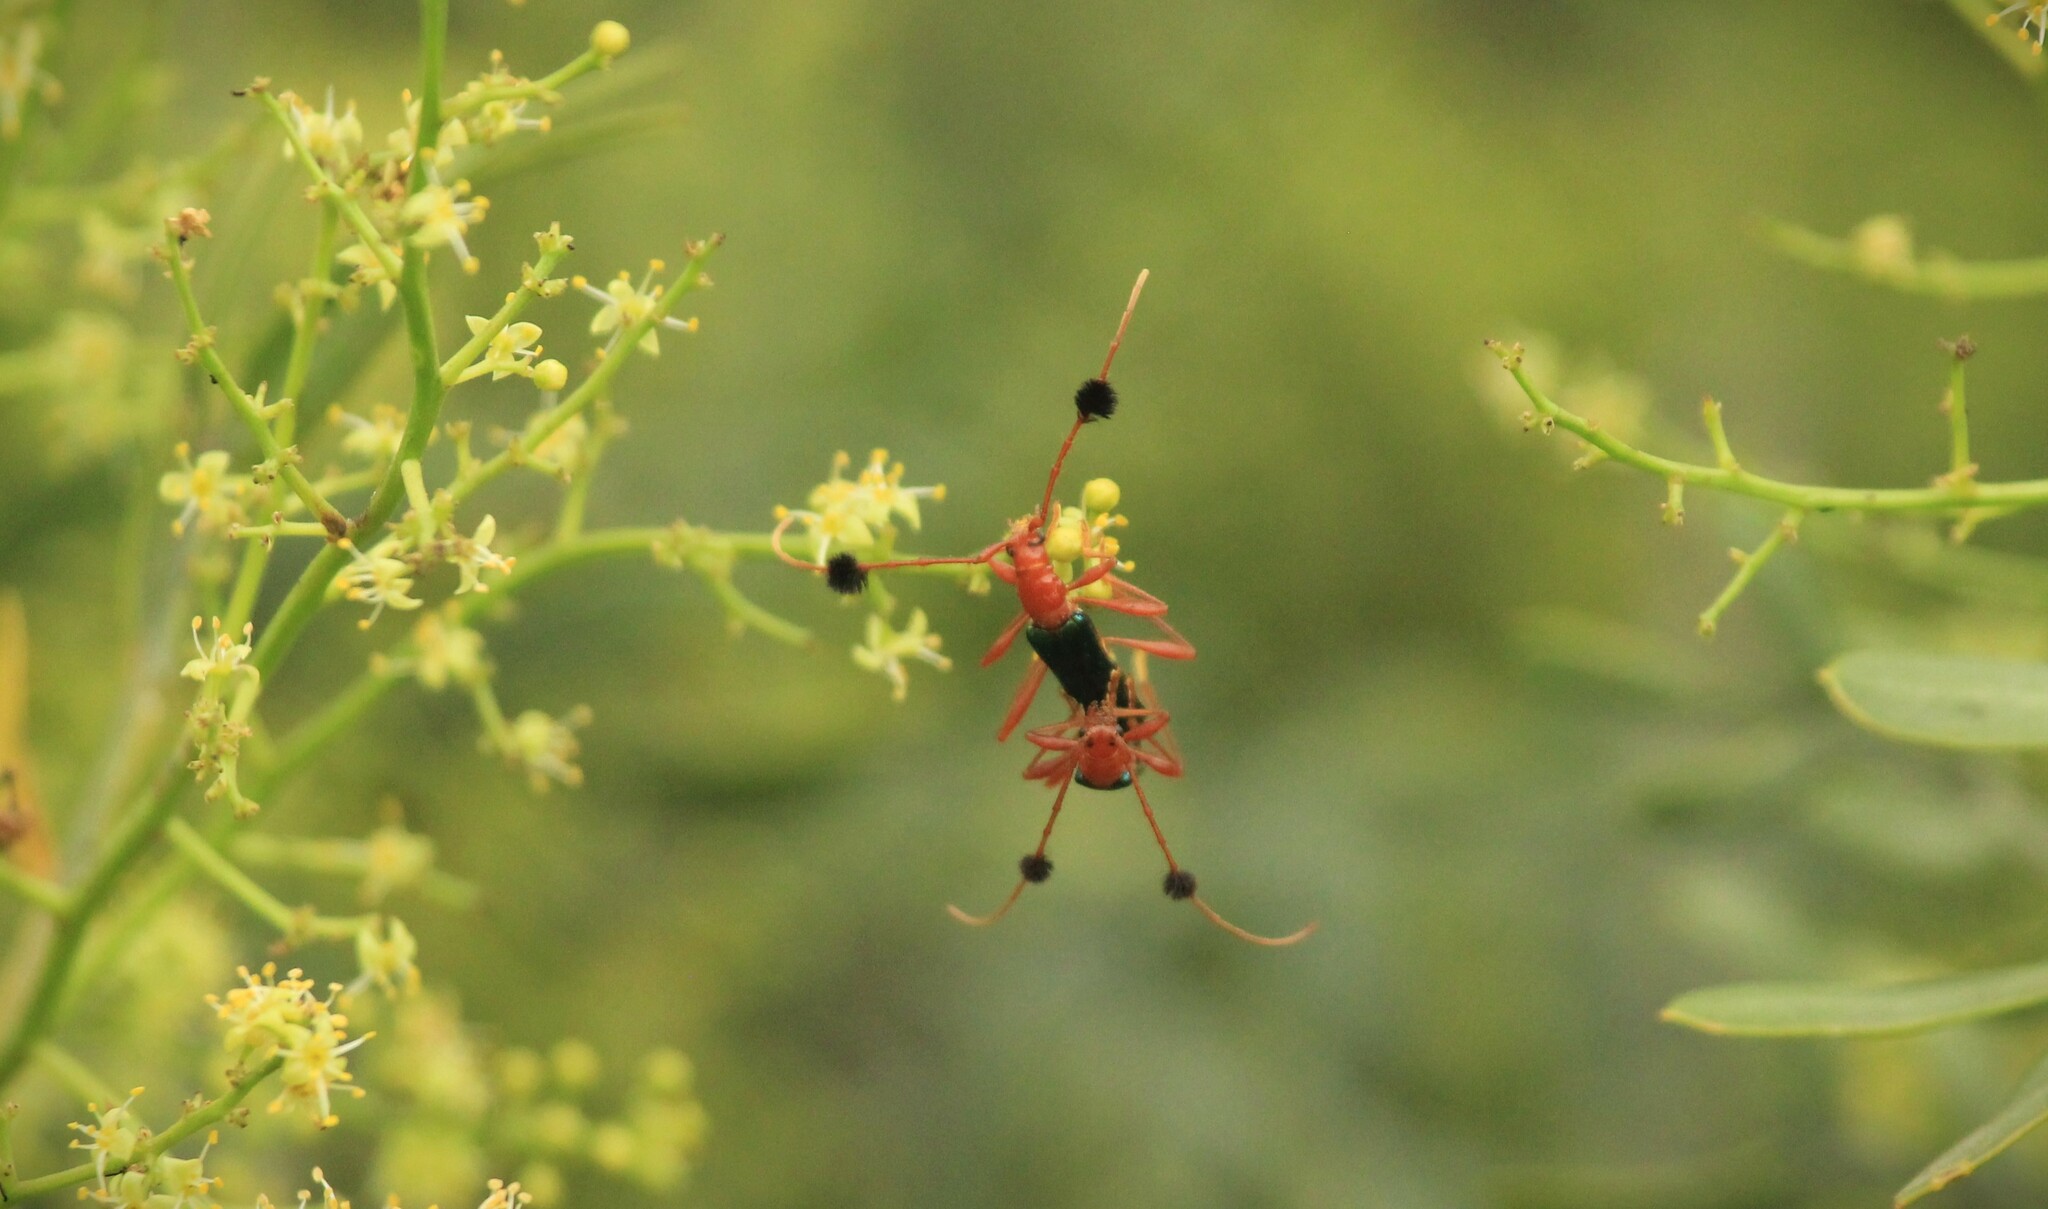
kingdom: Animalia
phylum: Arthropoda
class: Insecta
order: Coleoptera
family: Cerambycidae
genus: Paromoeocerus
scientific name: Paromoeocerus barbicornis
